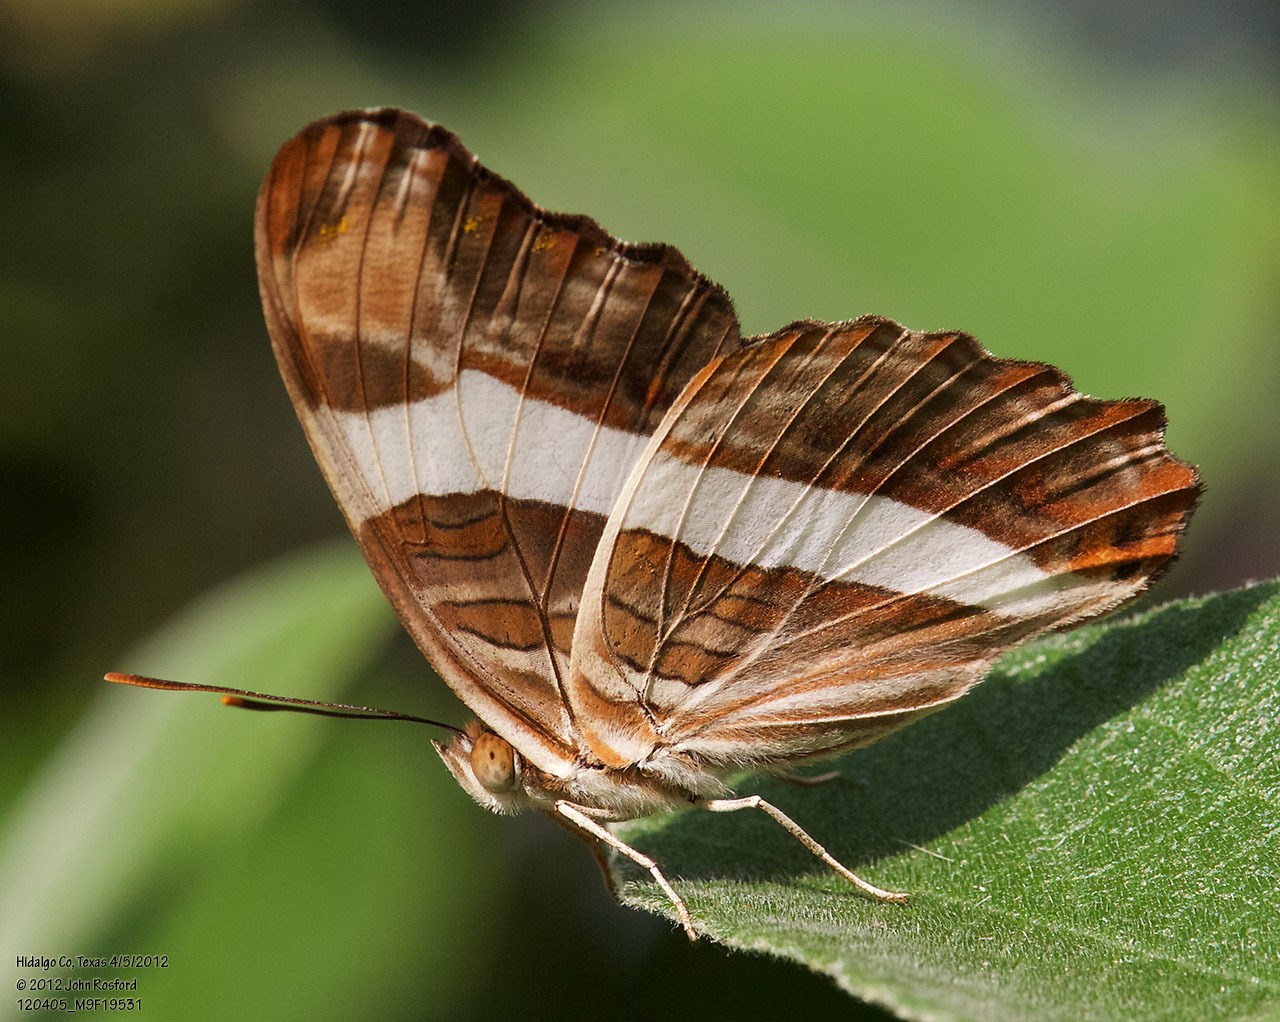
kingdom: Animalia
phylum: Arthropoda
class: Insecta
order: Lepidoptera
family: Nymphalidae
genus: Limenitis
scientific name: Limenitis fessonia
